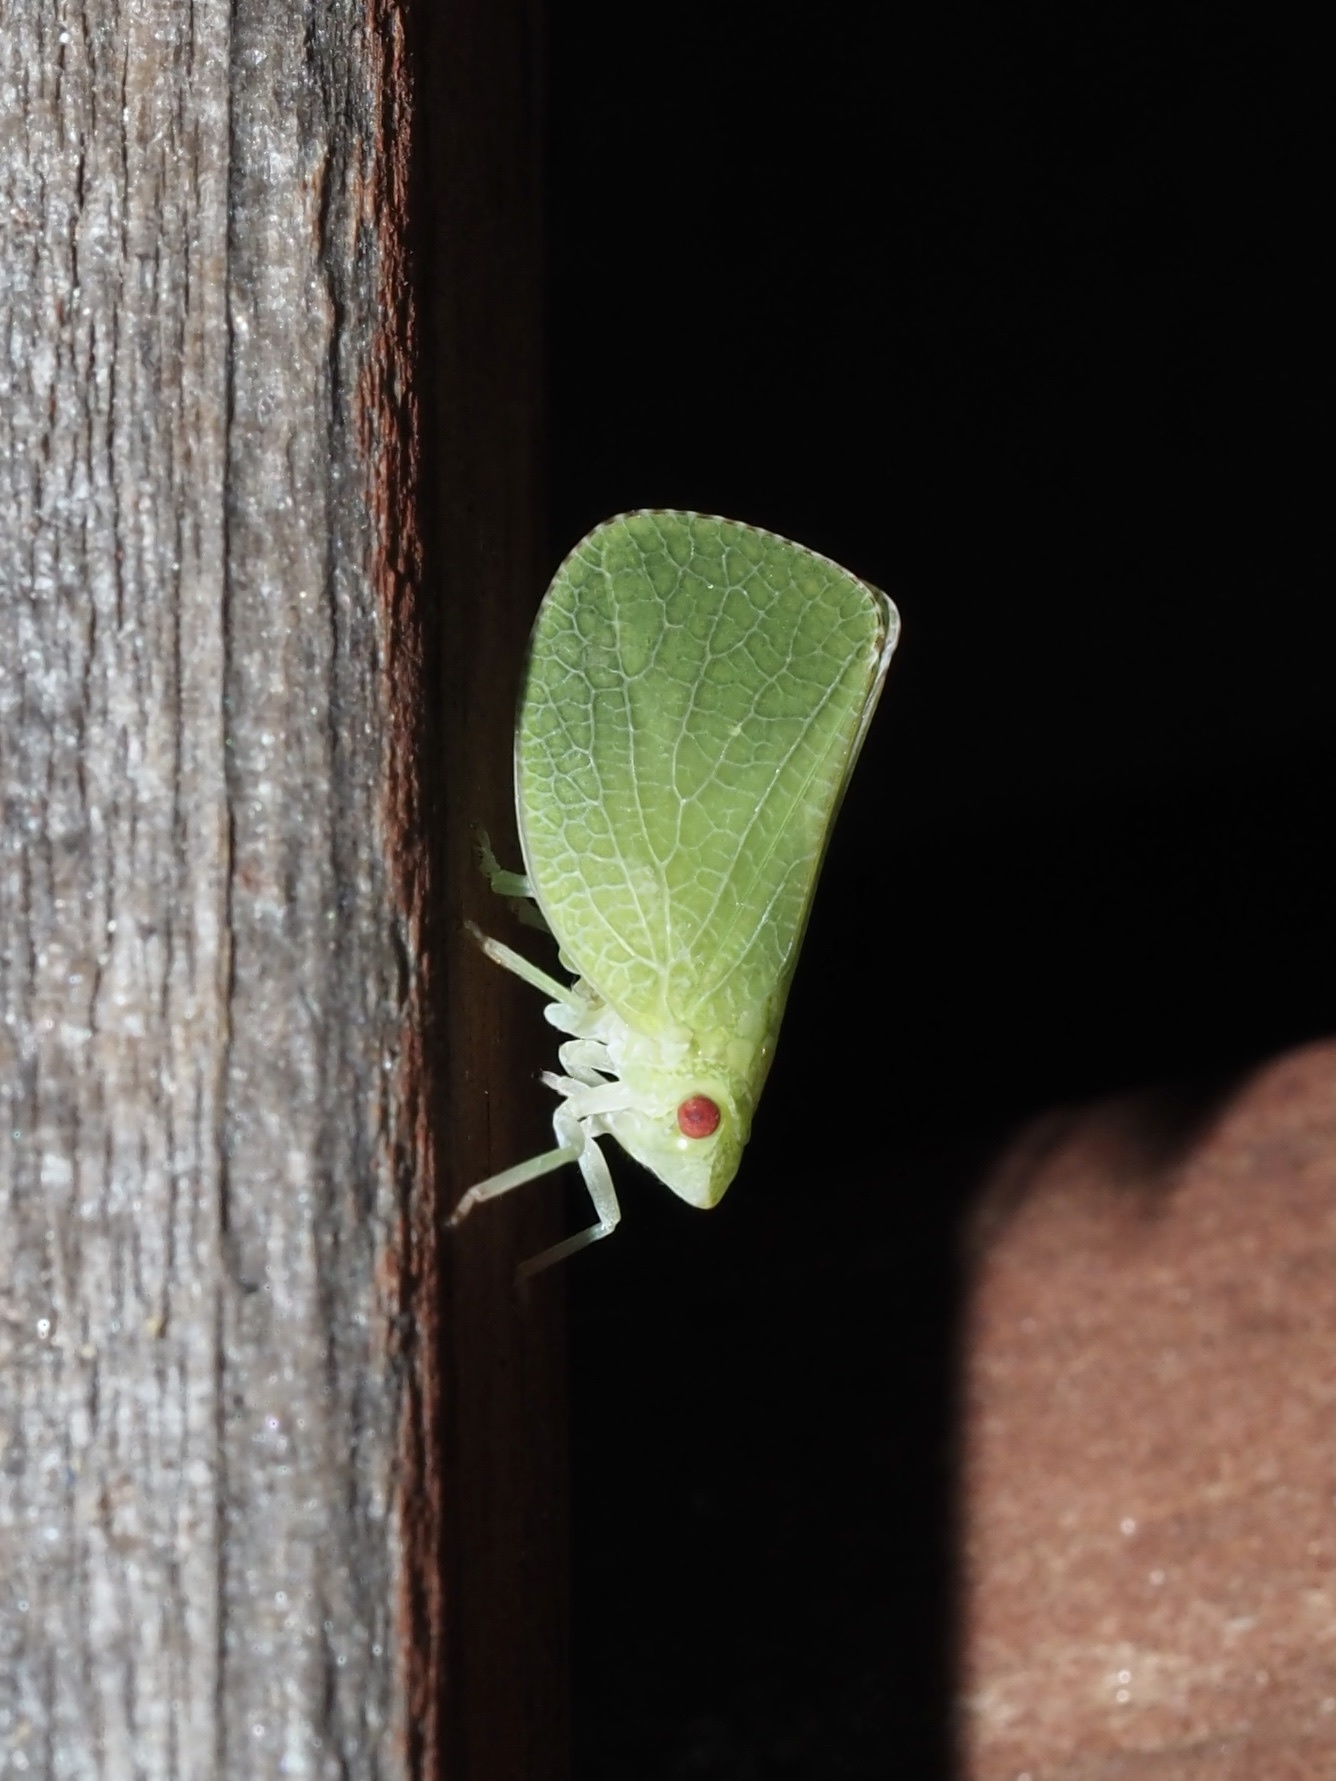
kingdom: Animalia
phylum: Arthropoda
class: Insecta
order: Hemiptera
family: Acanaloniidae
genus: Acanalonia
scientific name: Acanalonia conica
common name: Green cone-headed planthopper
